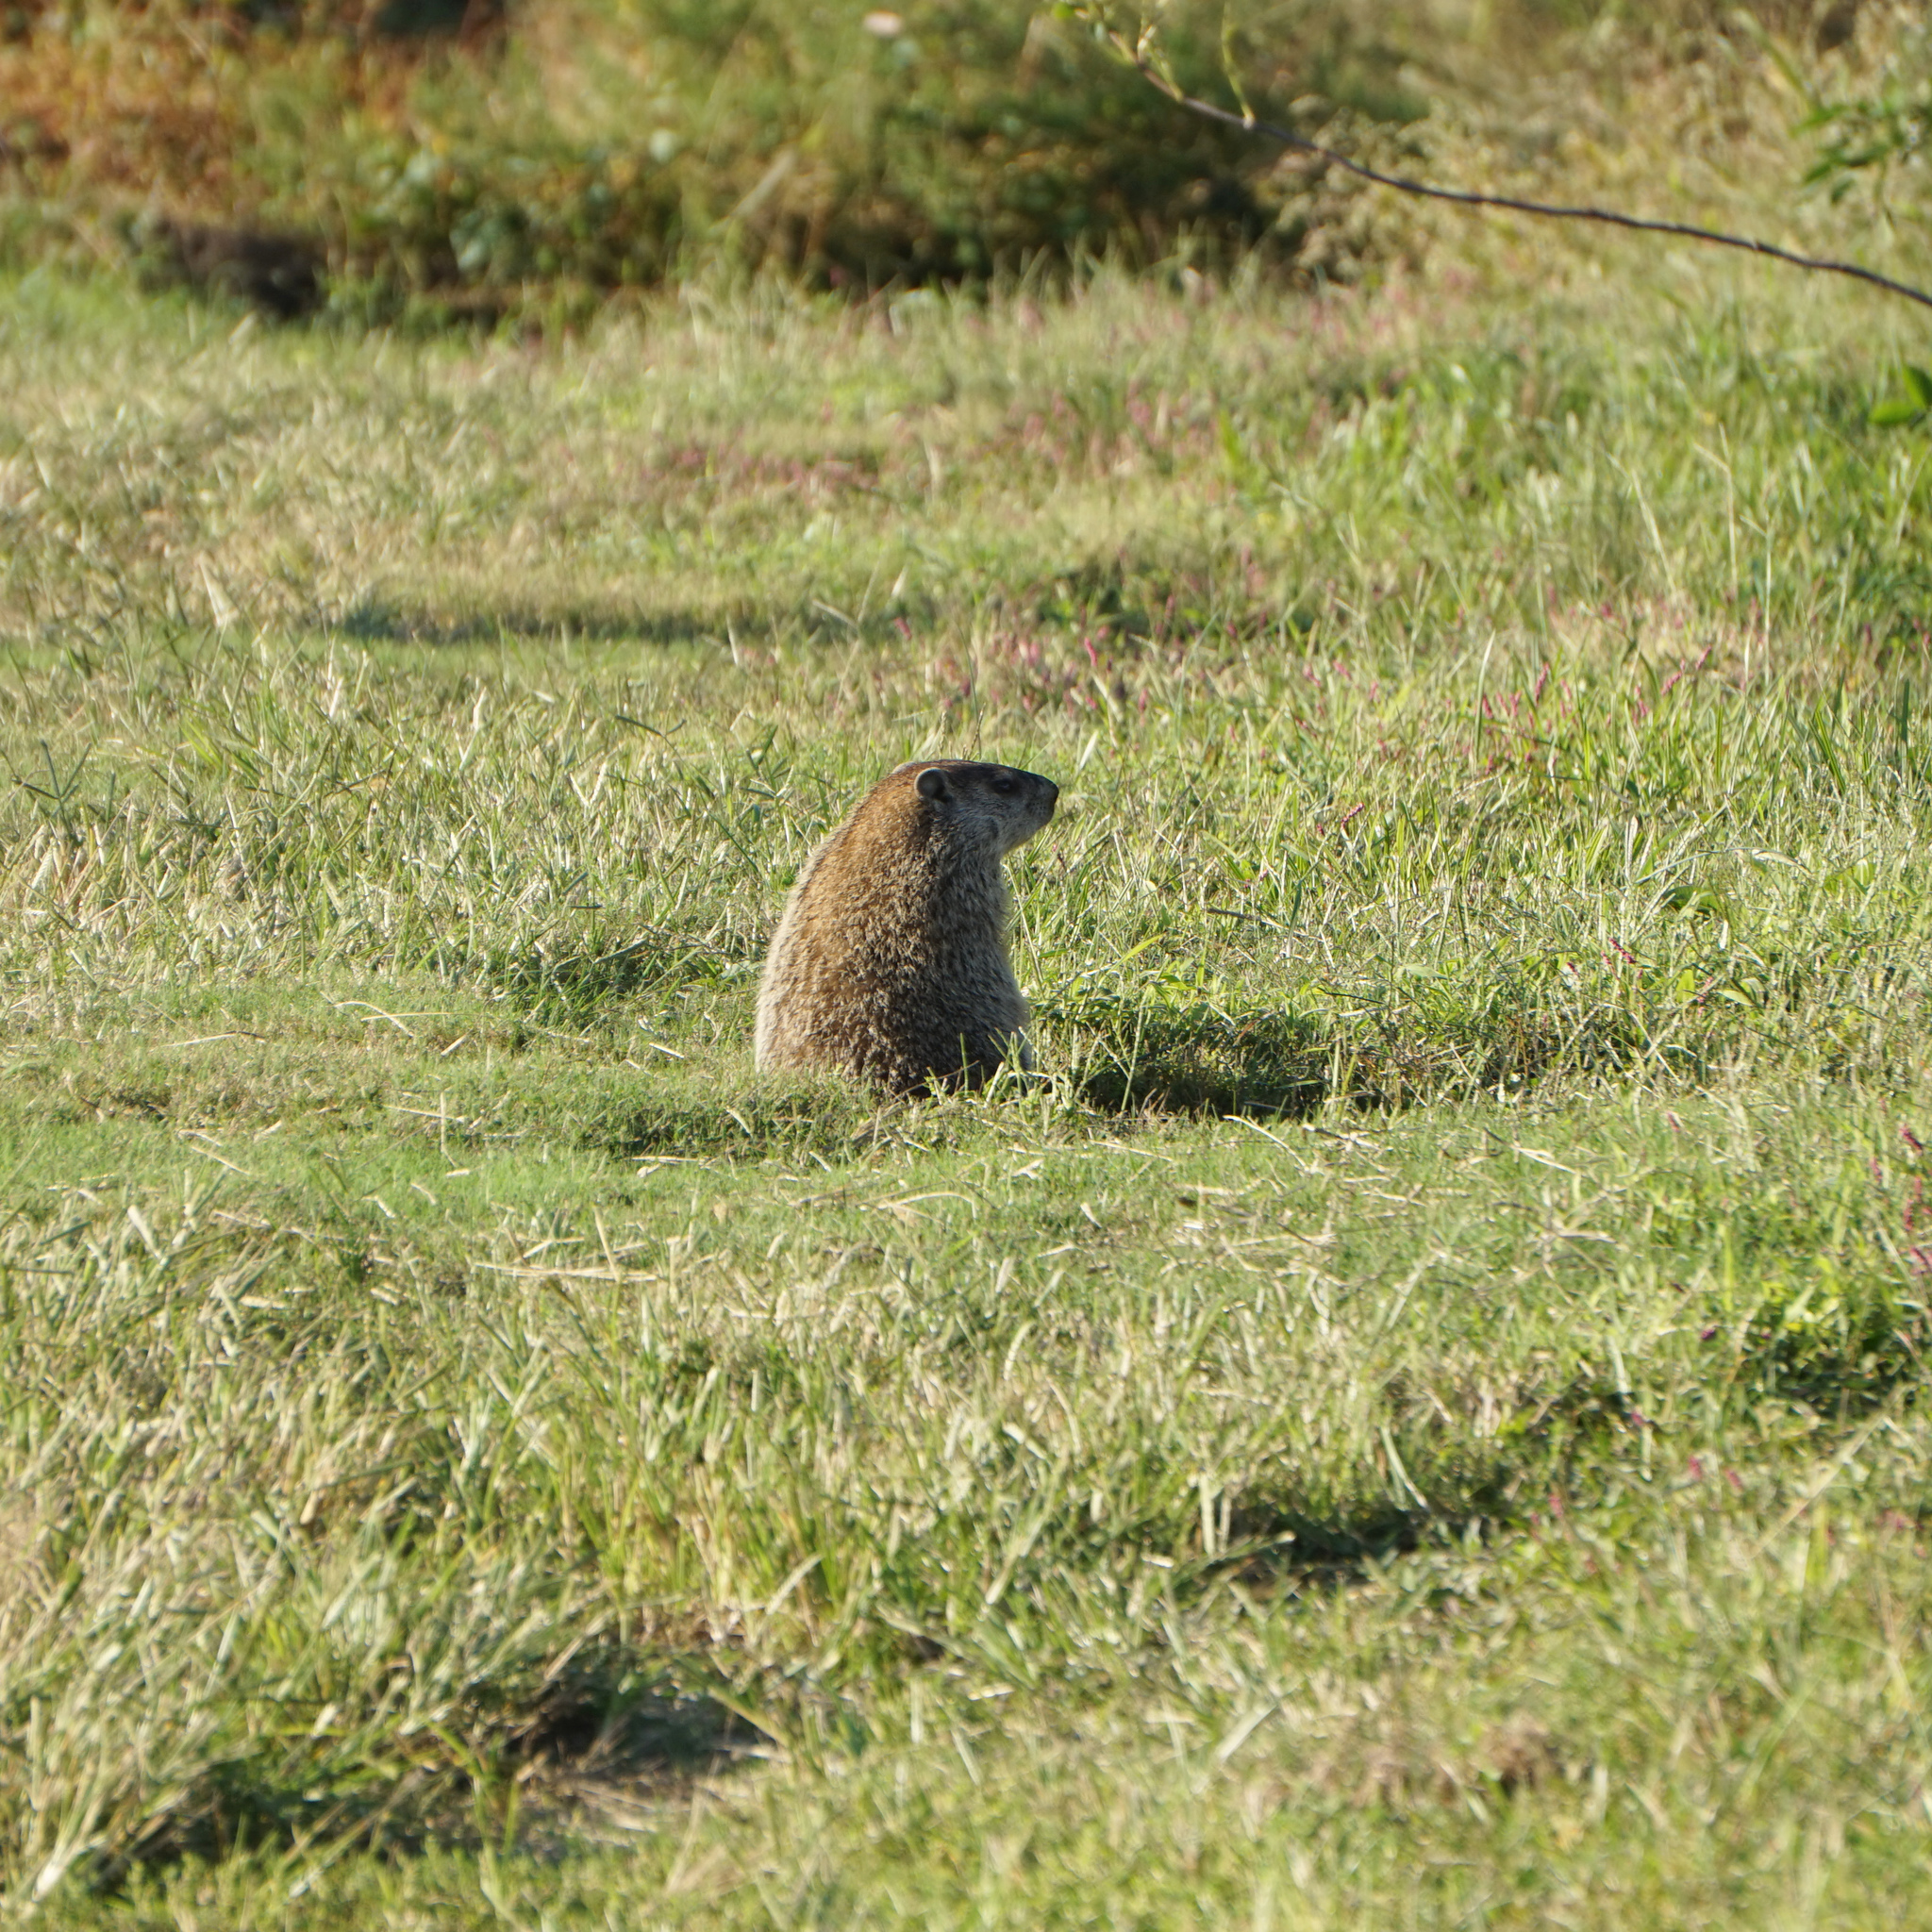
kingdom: Animalia
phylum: Chordata
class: Mammalia
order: Rodentia
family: Sciuridae
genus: Marmota
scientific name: Marmota monax
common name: Groundhog
